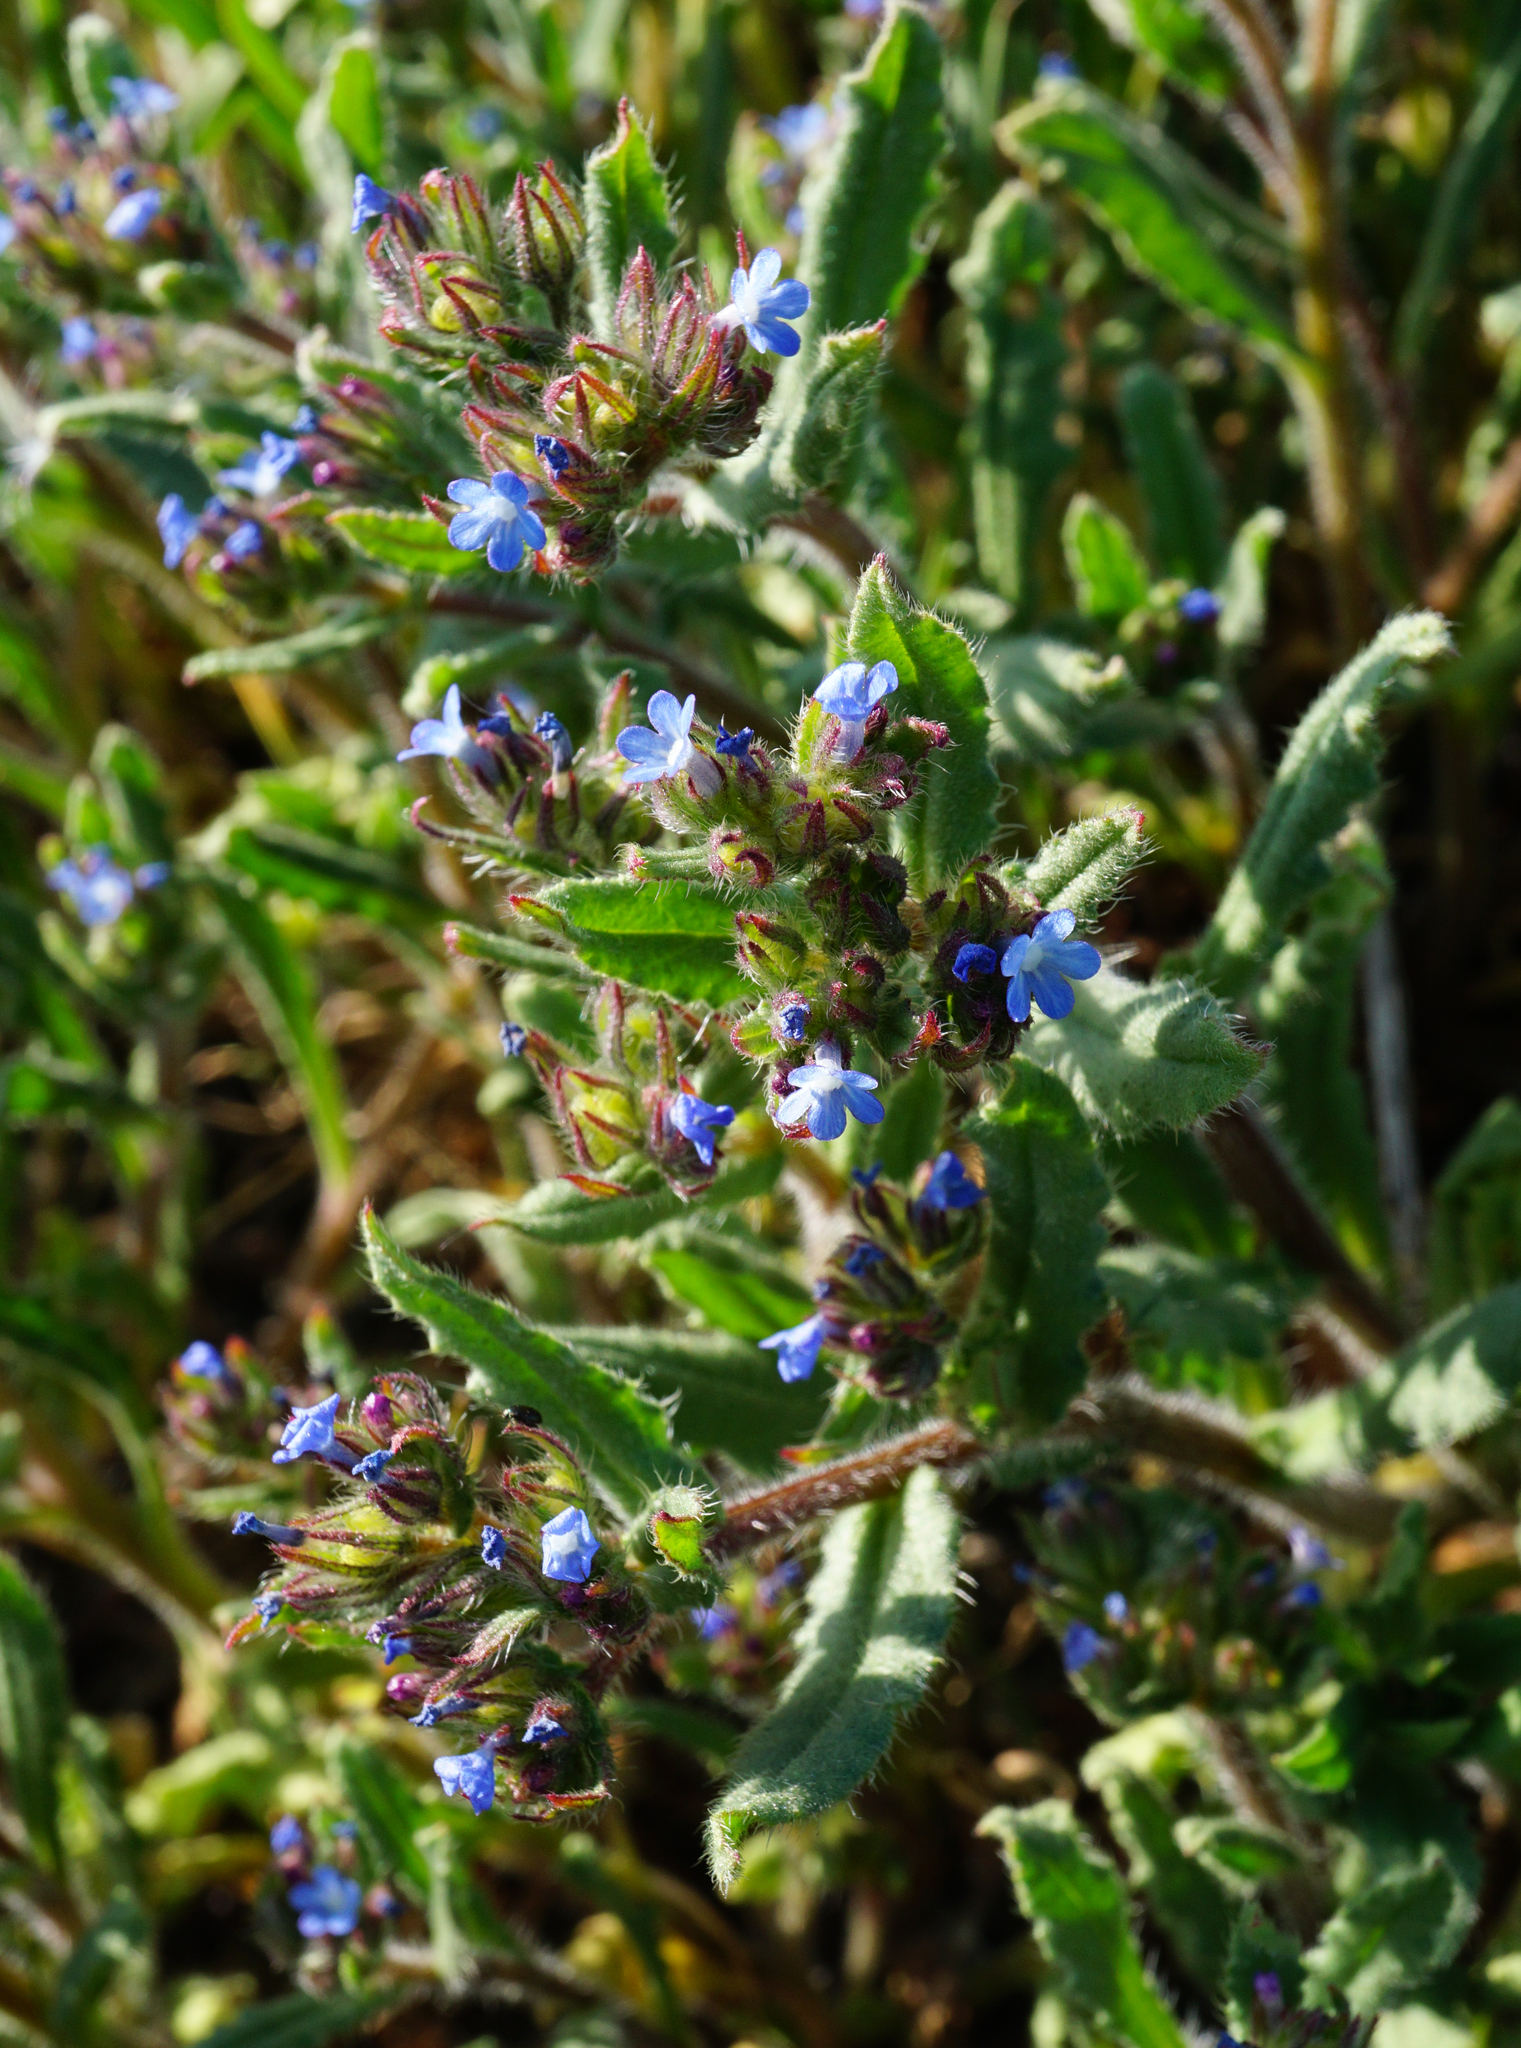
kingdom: Plantae
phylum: Tracheophyta
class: Magnoliopsida
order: Boraginales
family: Boraginaceae
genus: Lycopsis
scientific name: Lycopsis arvensis
